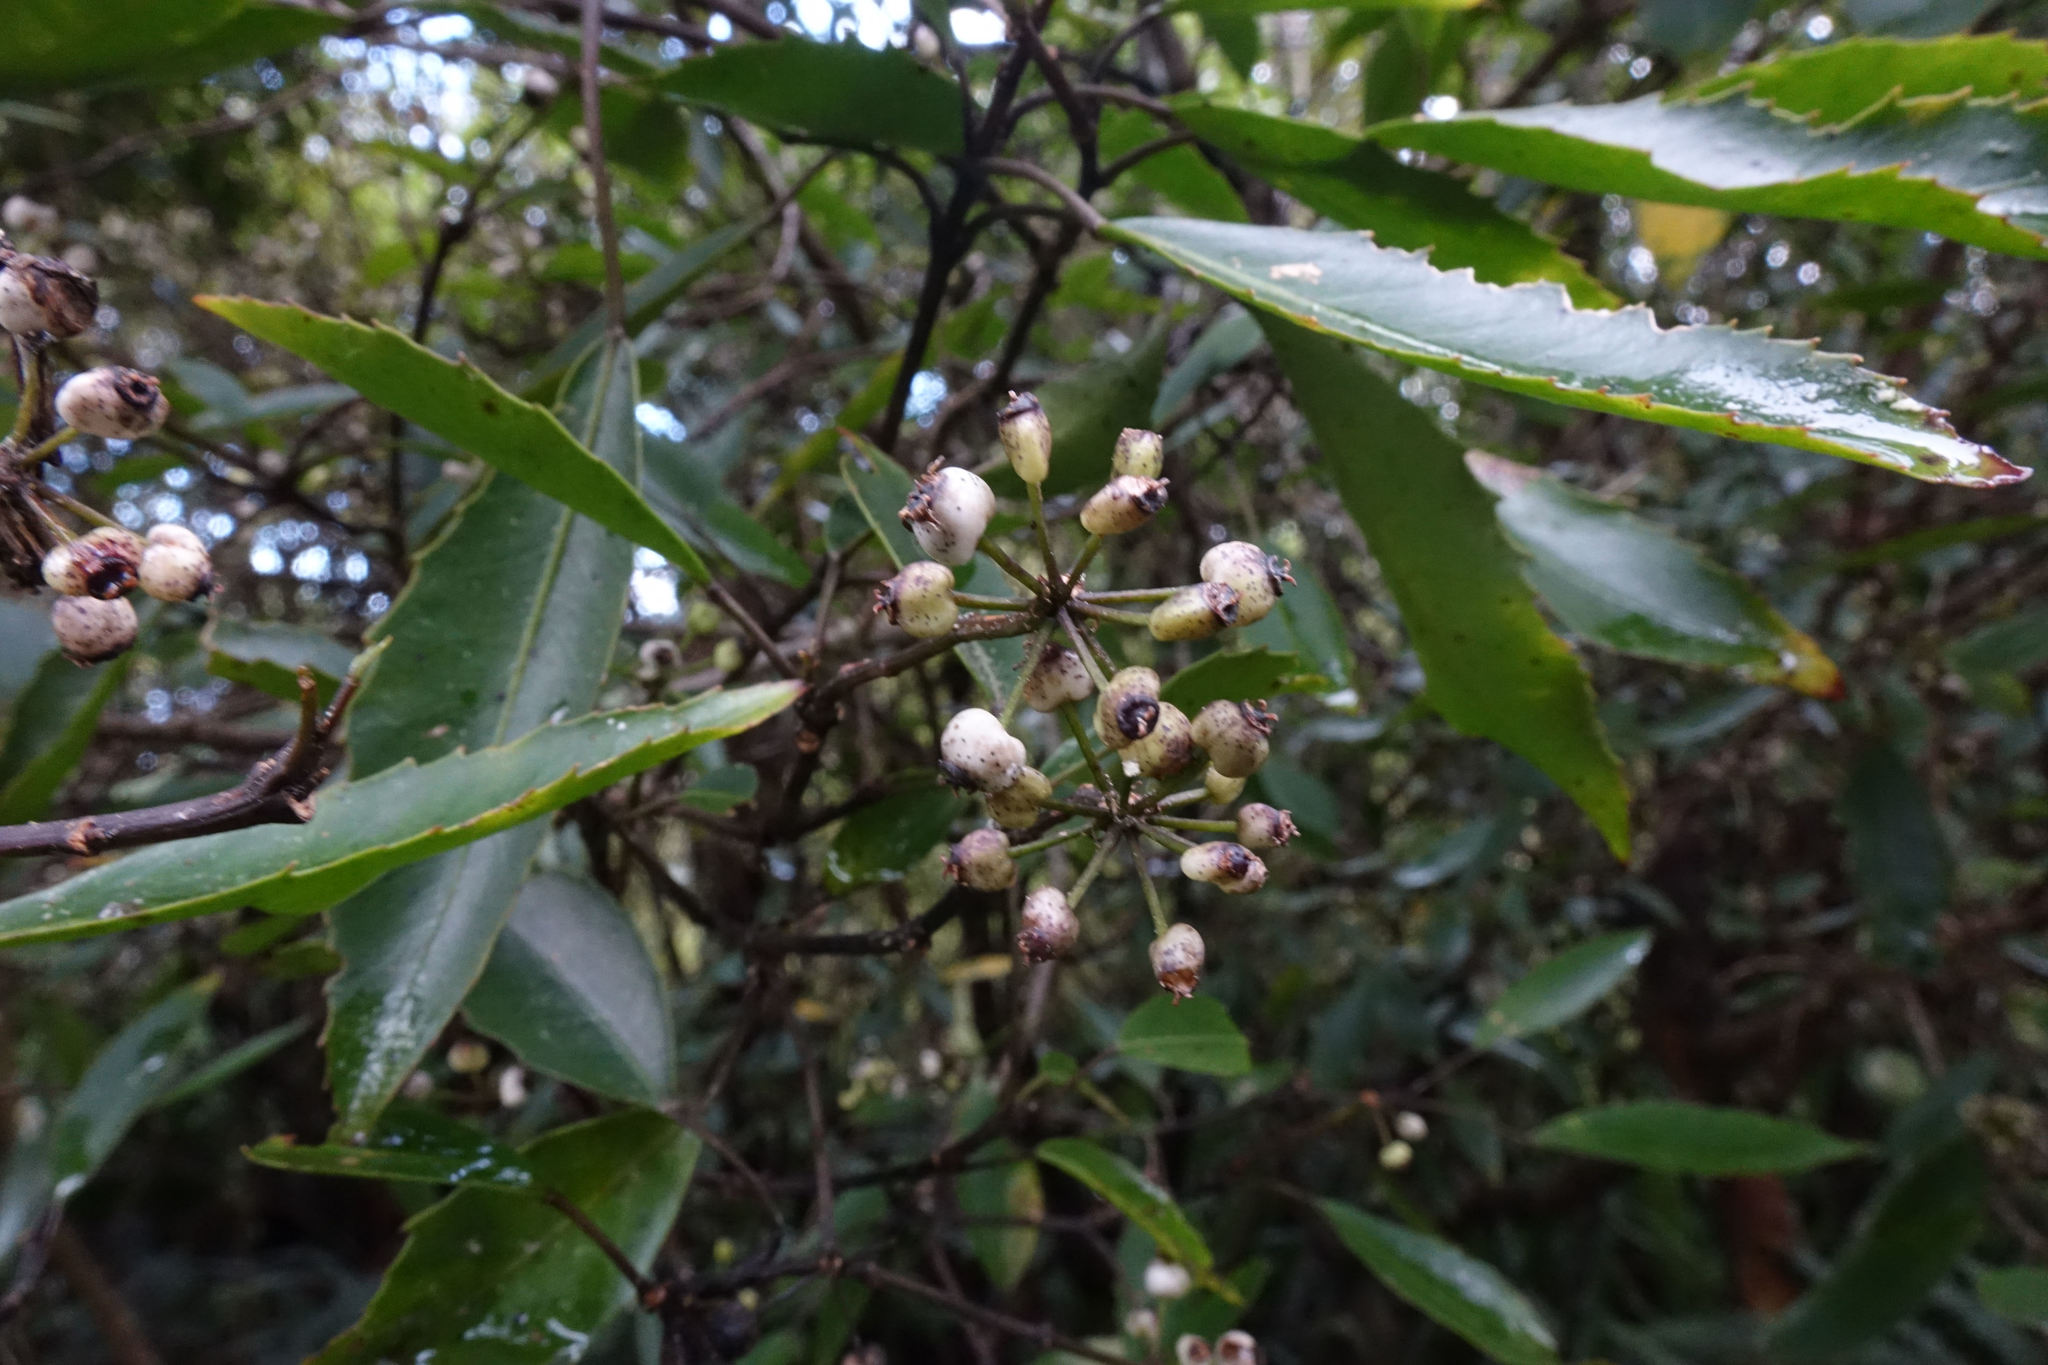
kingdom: Plantae
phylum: Tracheophyta
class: Magnoliopsida
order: Apiales
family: Araliaceae
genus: Raukaua
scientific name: Raukaua simplex
